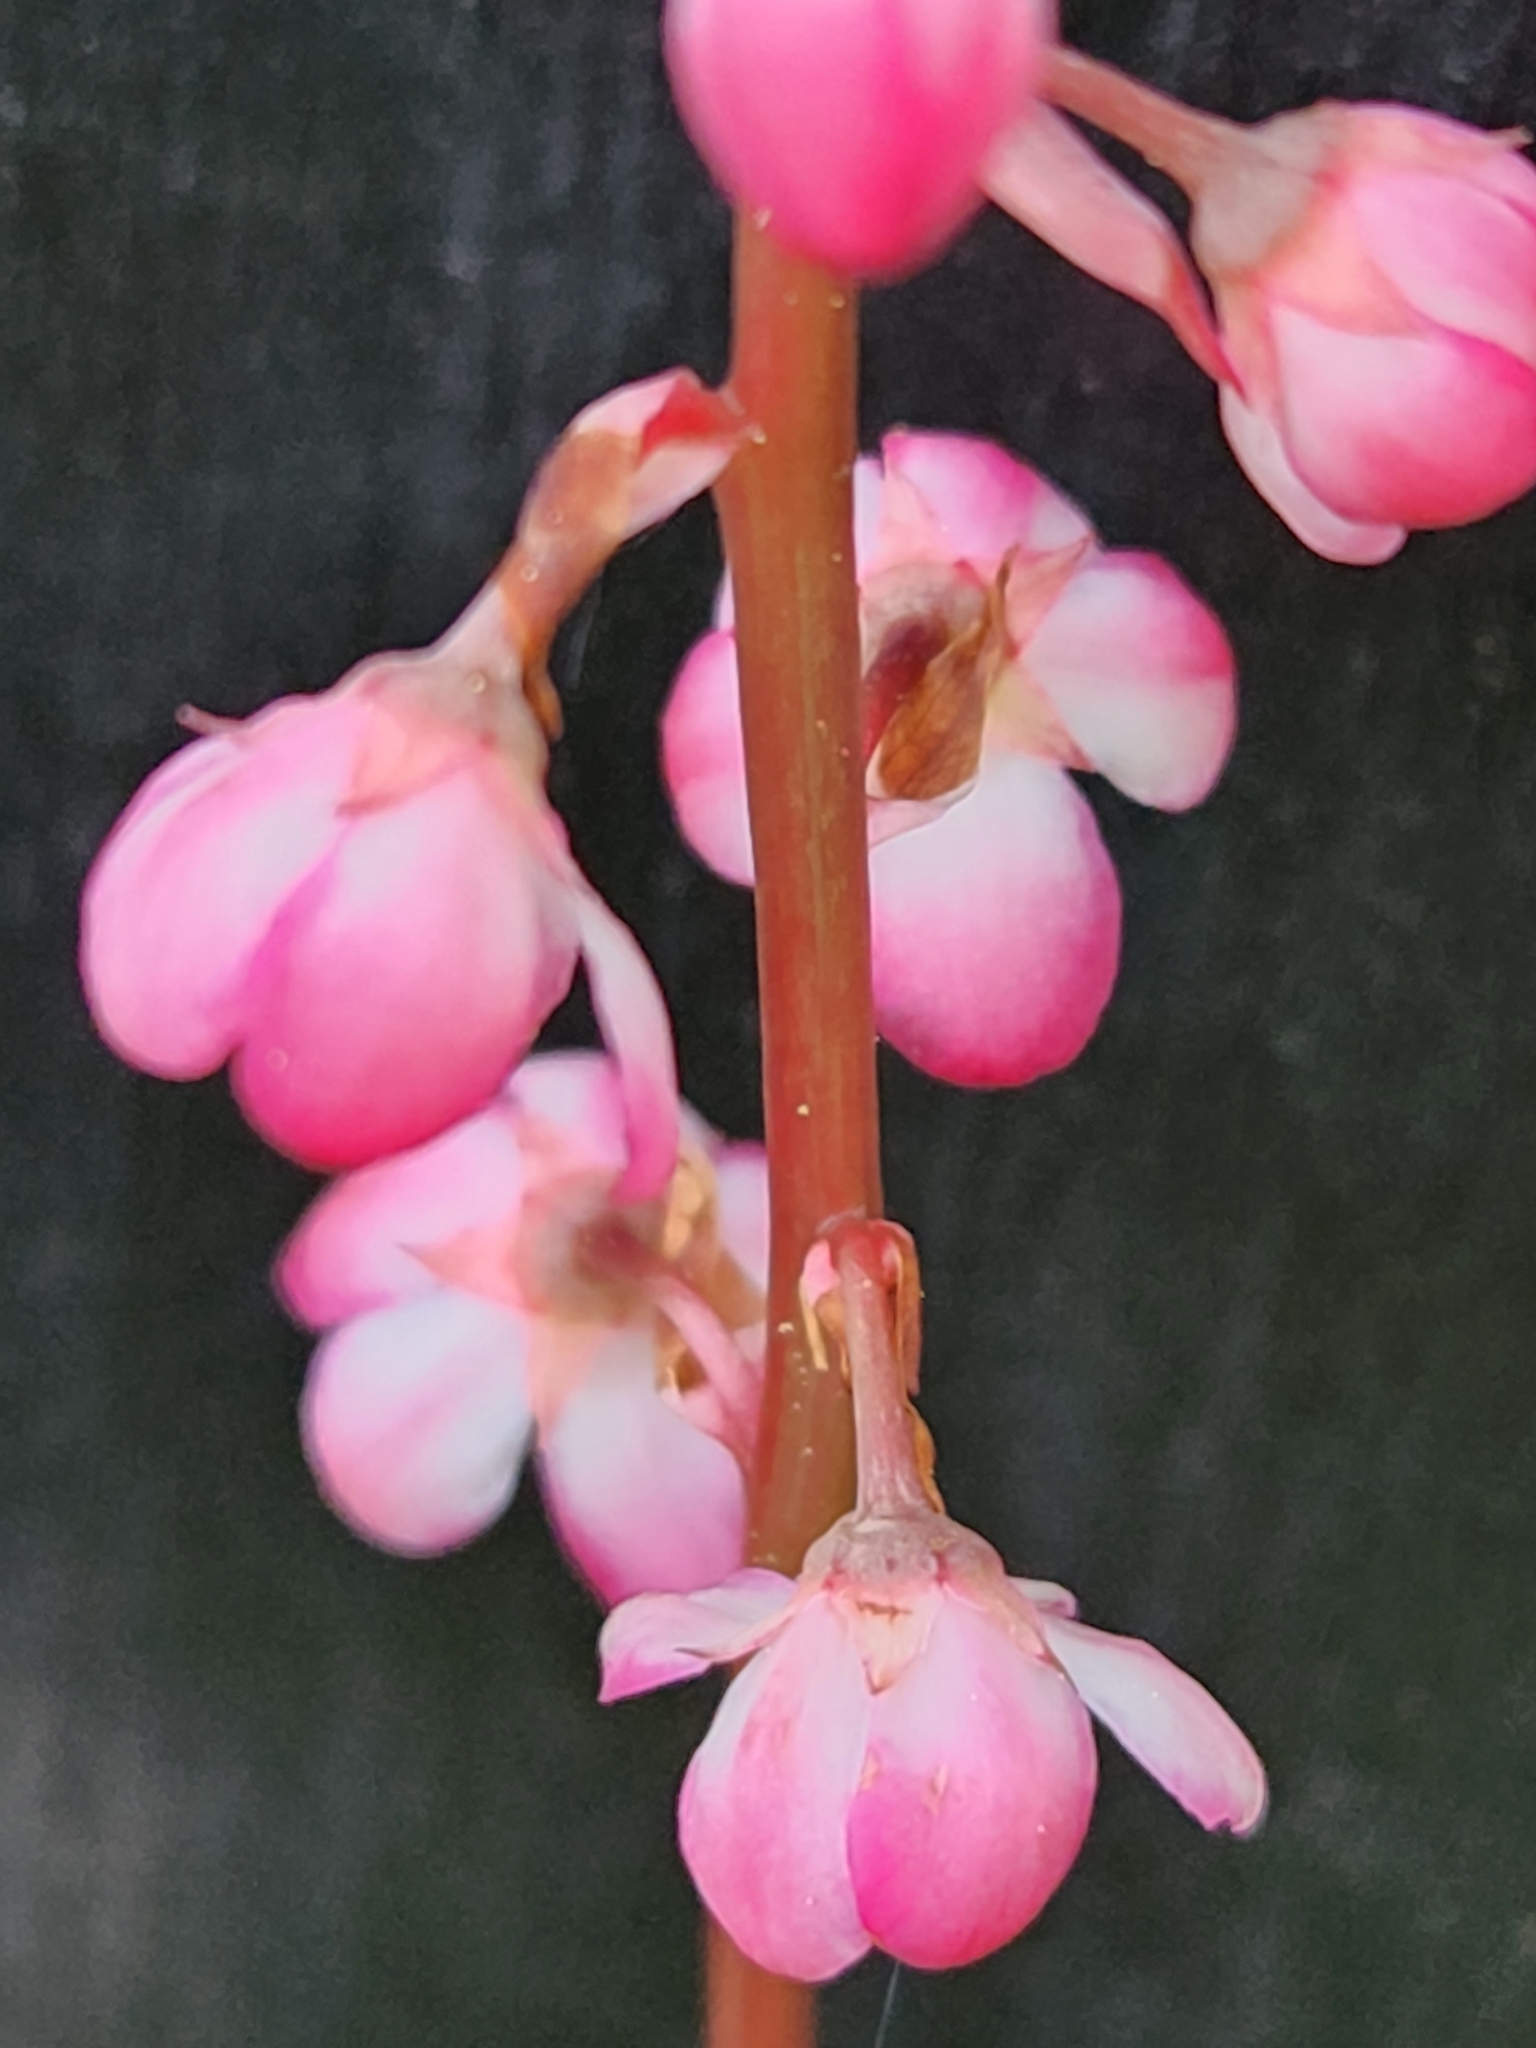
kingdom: Plantae
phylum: Tracheophyta
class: Magnoliopsida
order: Ericales
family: Ericaceae
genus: Pyrola
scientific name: Pyrola asarifolia
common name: Bog wintergreen
